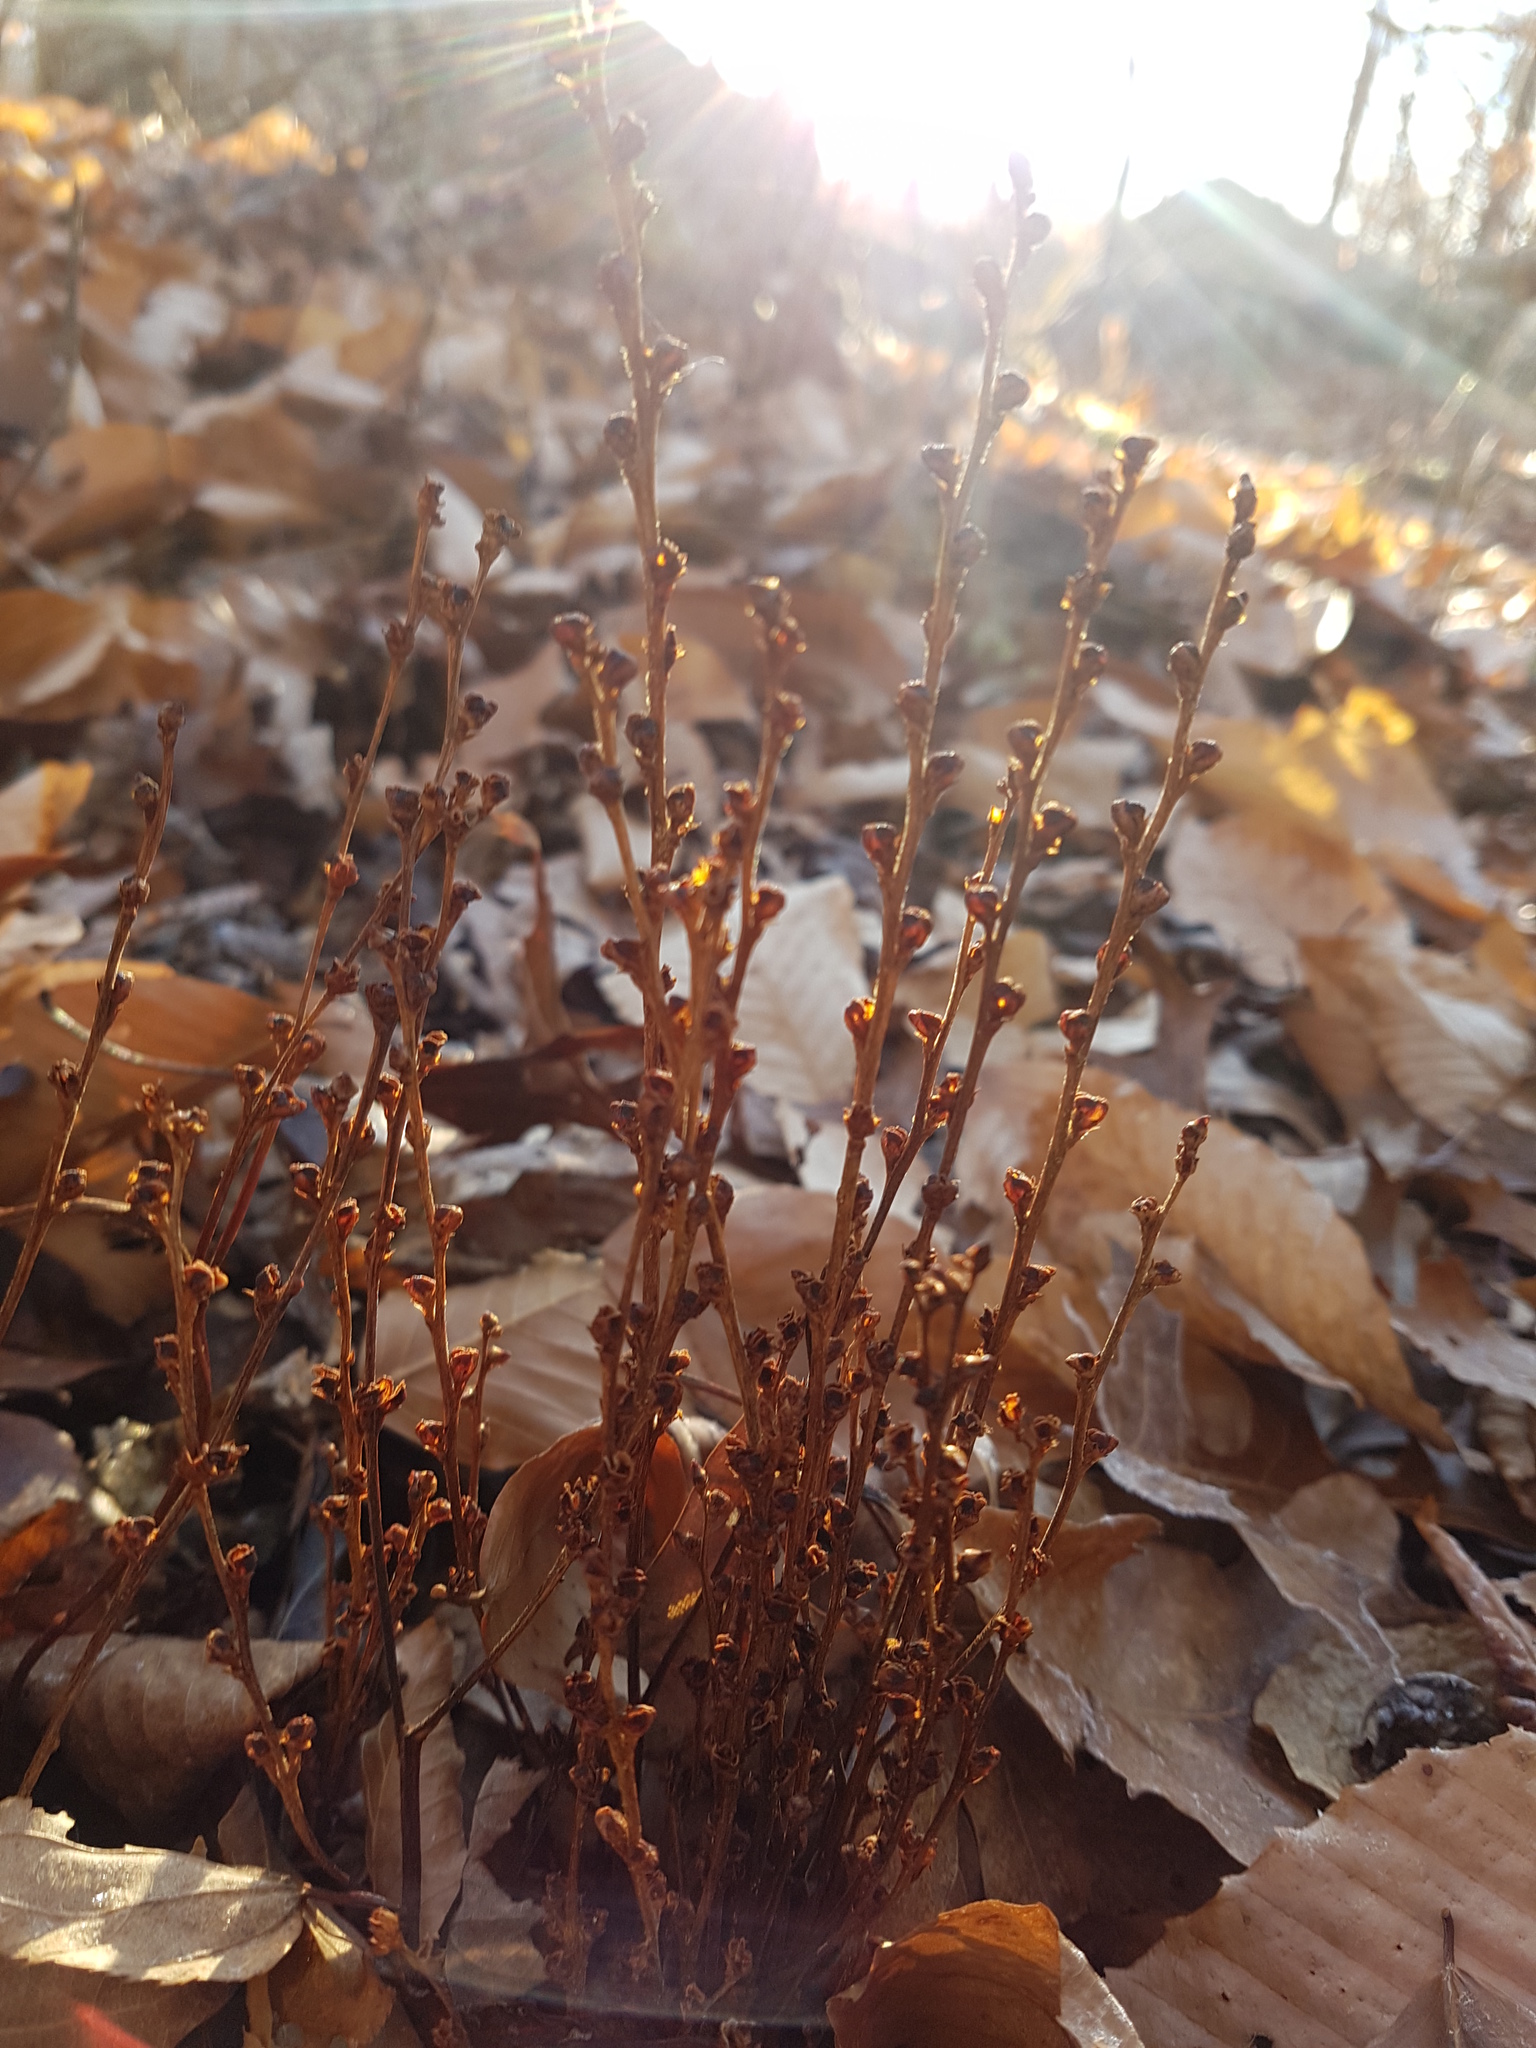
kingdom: Plantae
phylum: Tracheophyta
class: Magnoliopsida
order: Lamiales
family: Orobanchaceae
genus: Epifagus
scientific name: Epifagus virginiana
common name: Beechdrops
